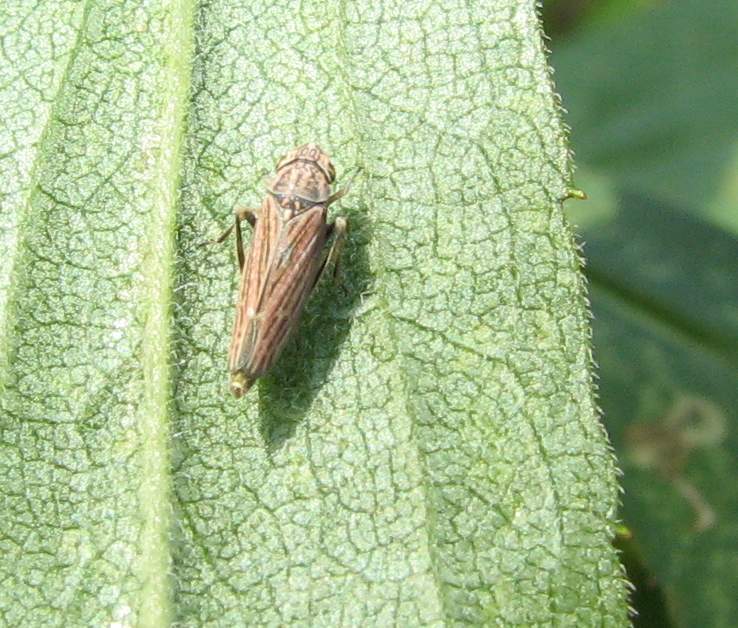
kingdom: Animalia
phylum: Arthropoda
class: Insecta
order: Hemiptera
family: Cicadellidae
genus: Neokolla
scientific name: Neokolla hieroglyphica
